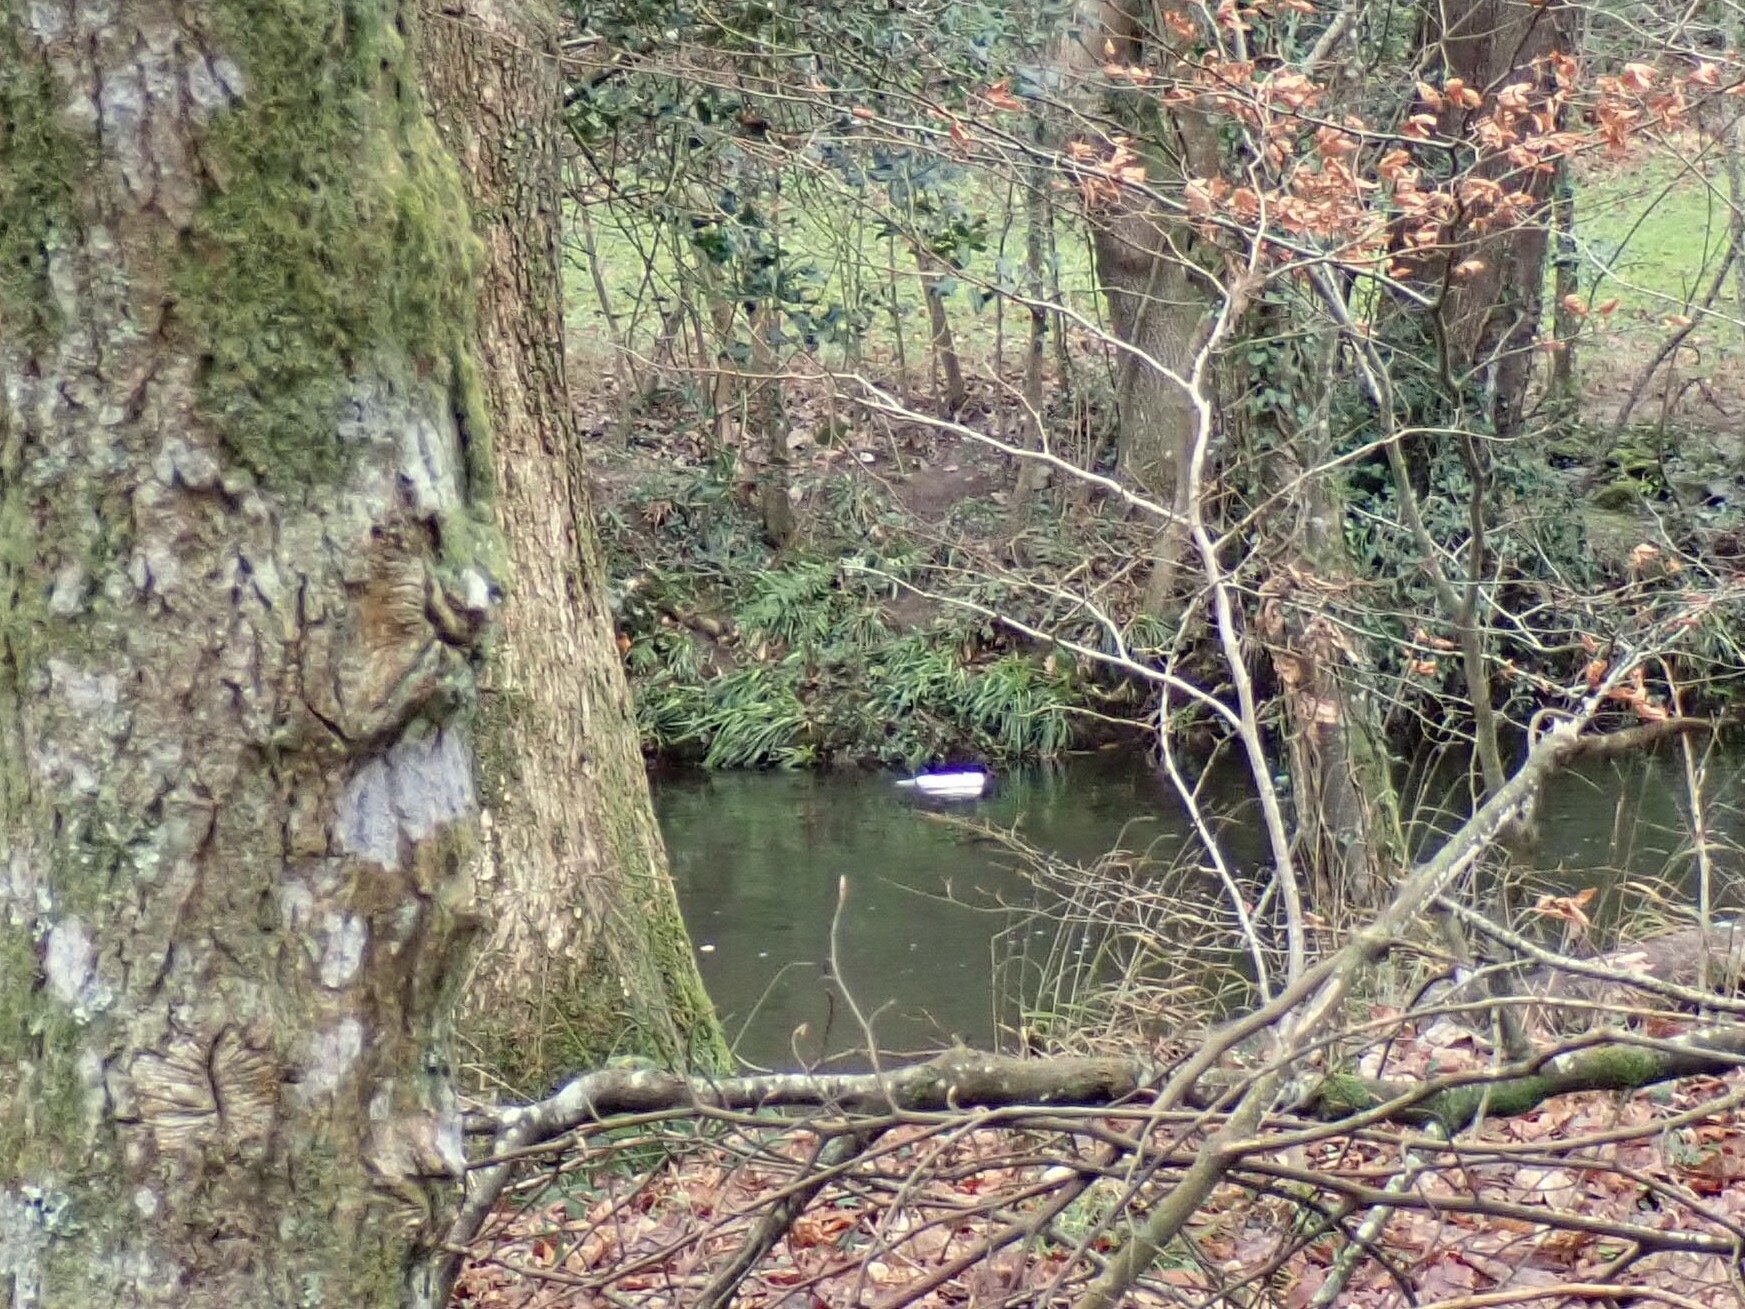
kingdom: Animalia
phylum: Chordata
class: Aves
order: Anseriformes
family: Anatidae
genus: Mergus
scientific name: Mergus merganser
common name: Common merganser
